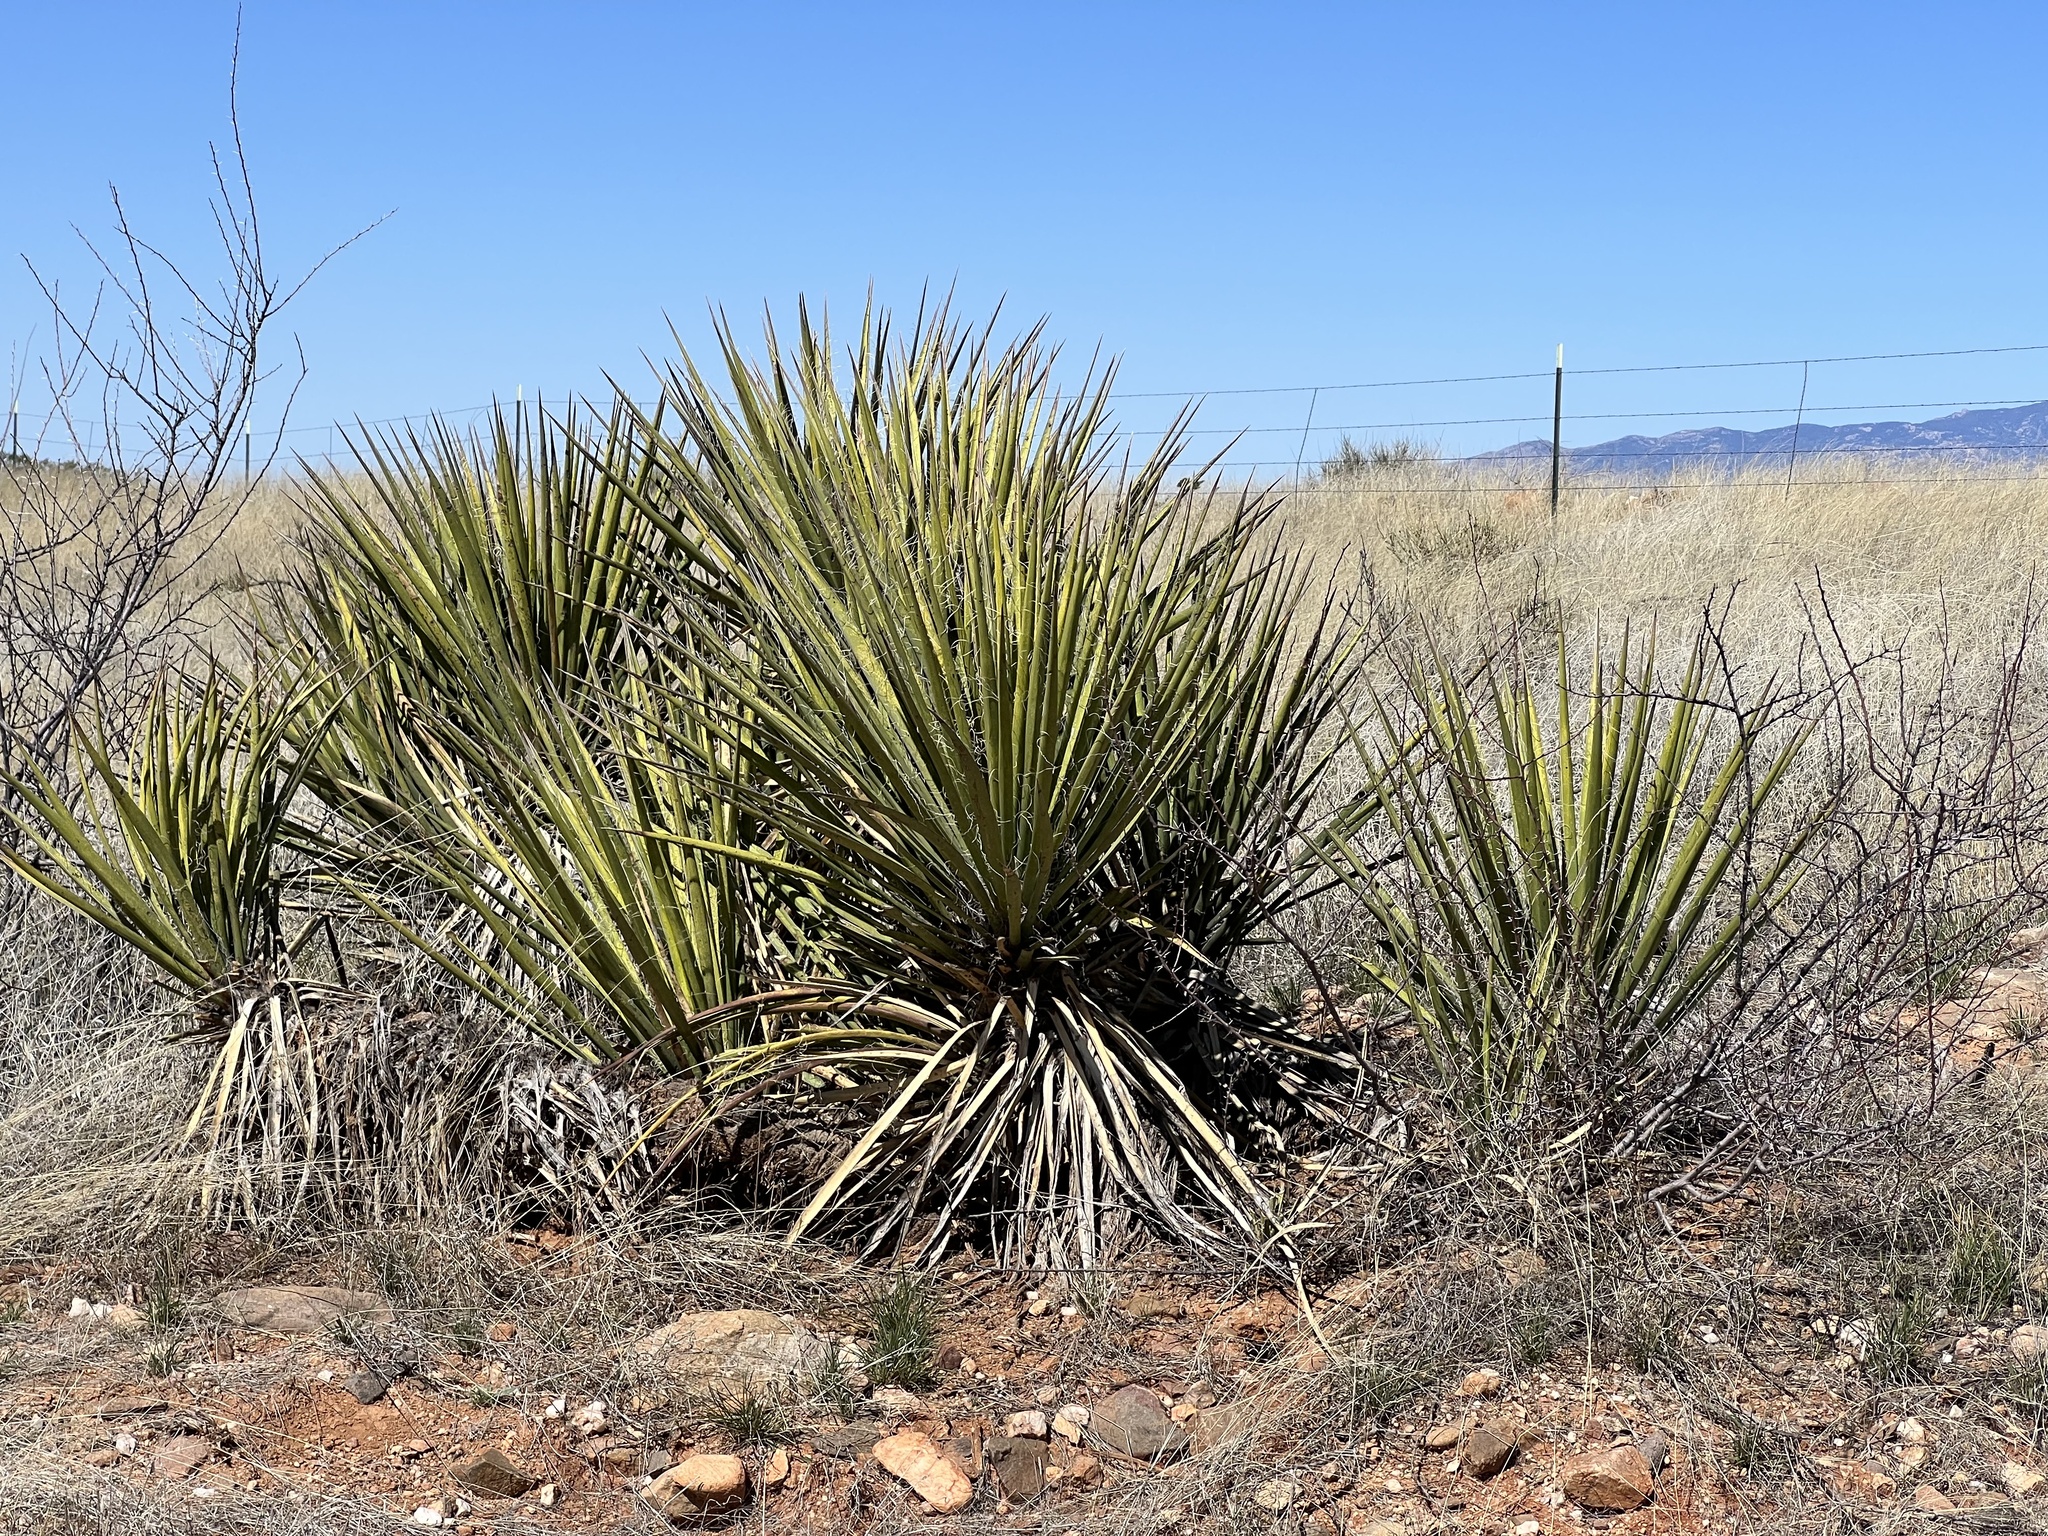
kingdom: Plantae
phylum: Tracheophyta
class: Liliopsida
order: Asparagales
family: Asparagaceae
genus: Yucca
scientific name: Yucca baccata
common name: Banana yucca
